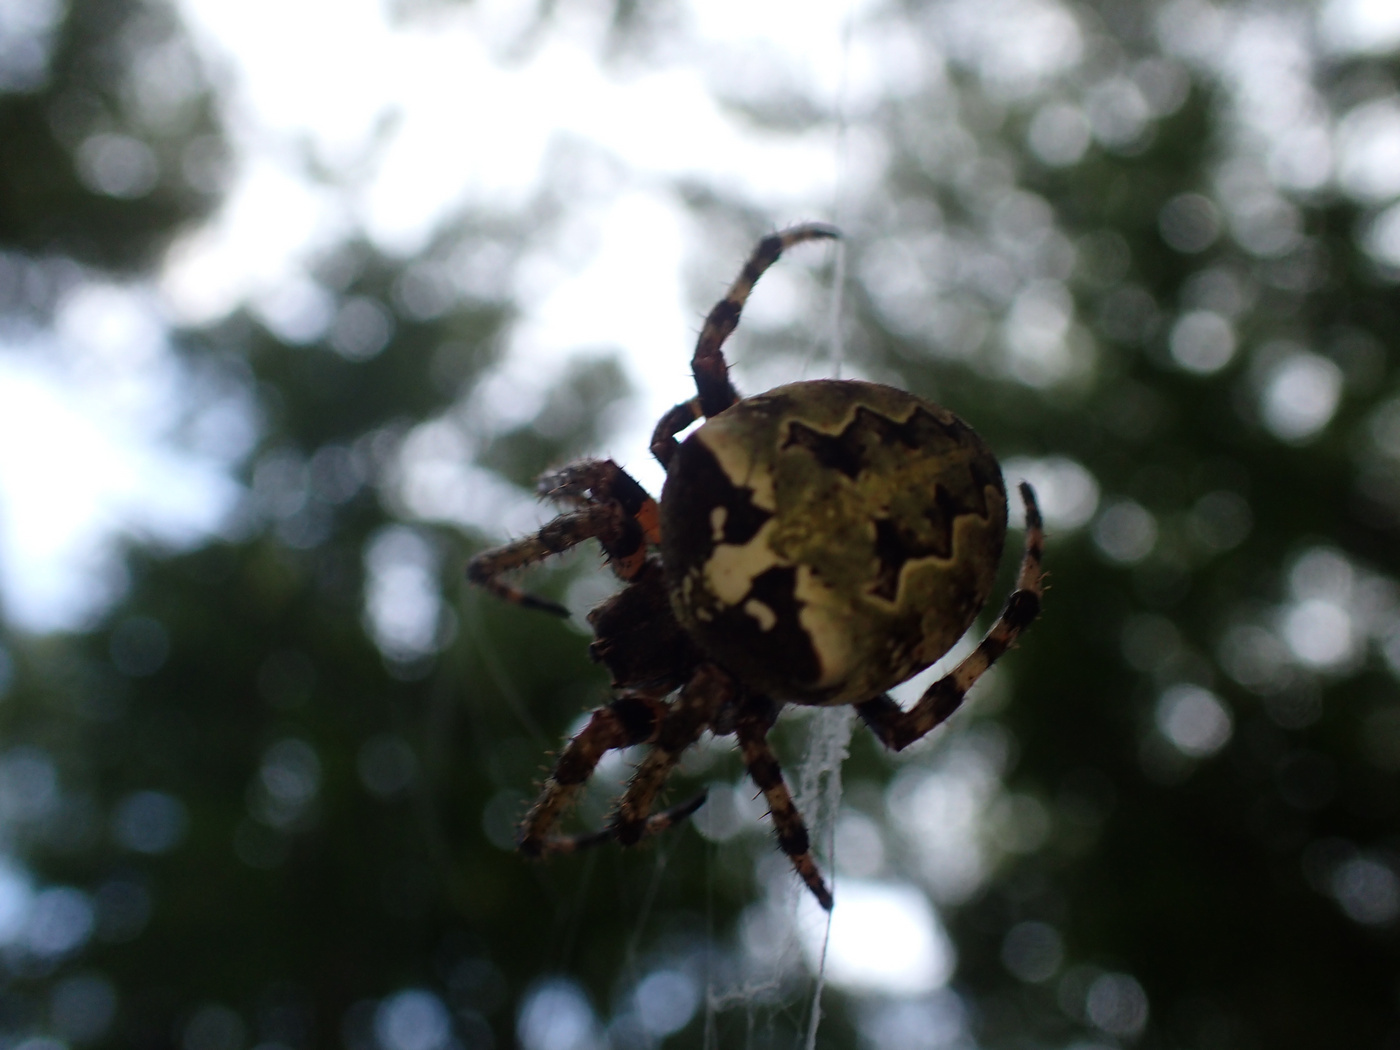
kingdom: Animalia
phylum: Arthropoda
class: Arachnida
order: Araneae
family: Araneidae
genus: Araneus
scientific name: Araneus bicentenarius
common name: Giant lichen orbweaver
